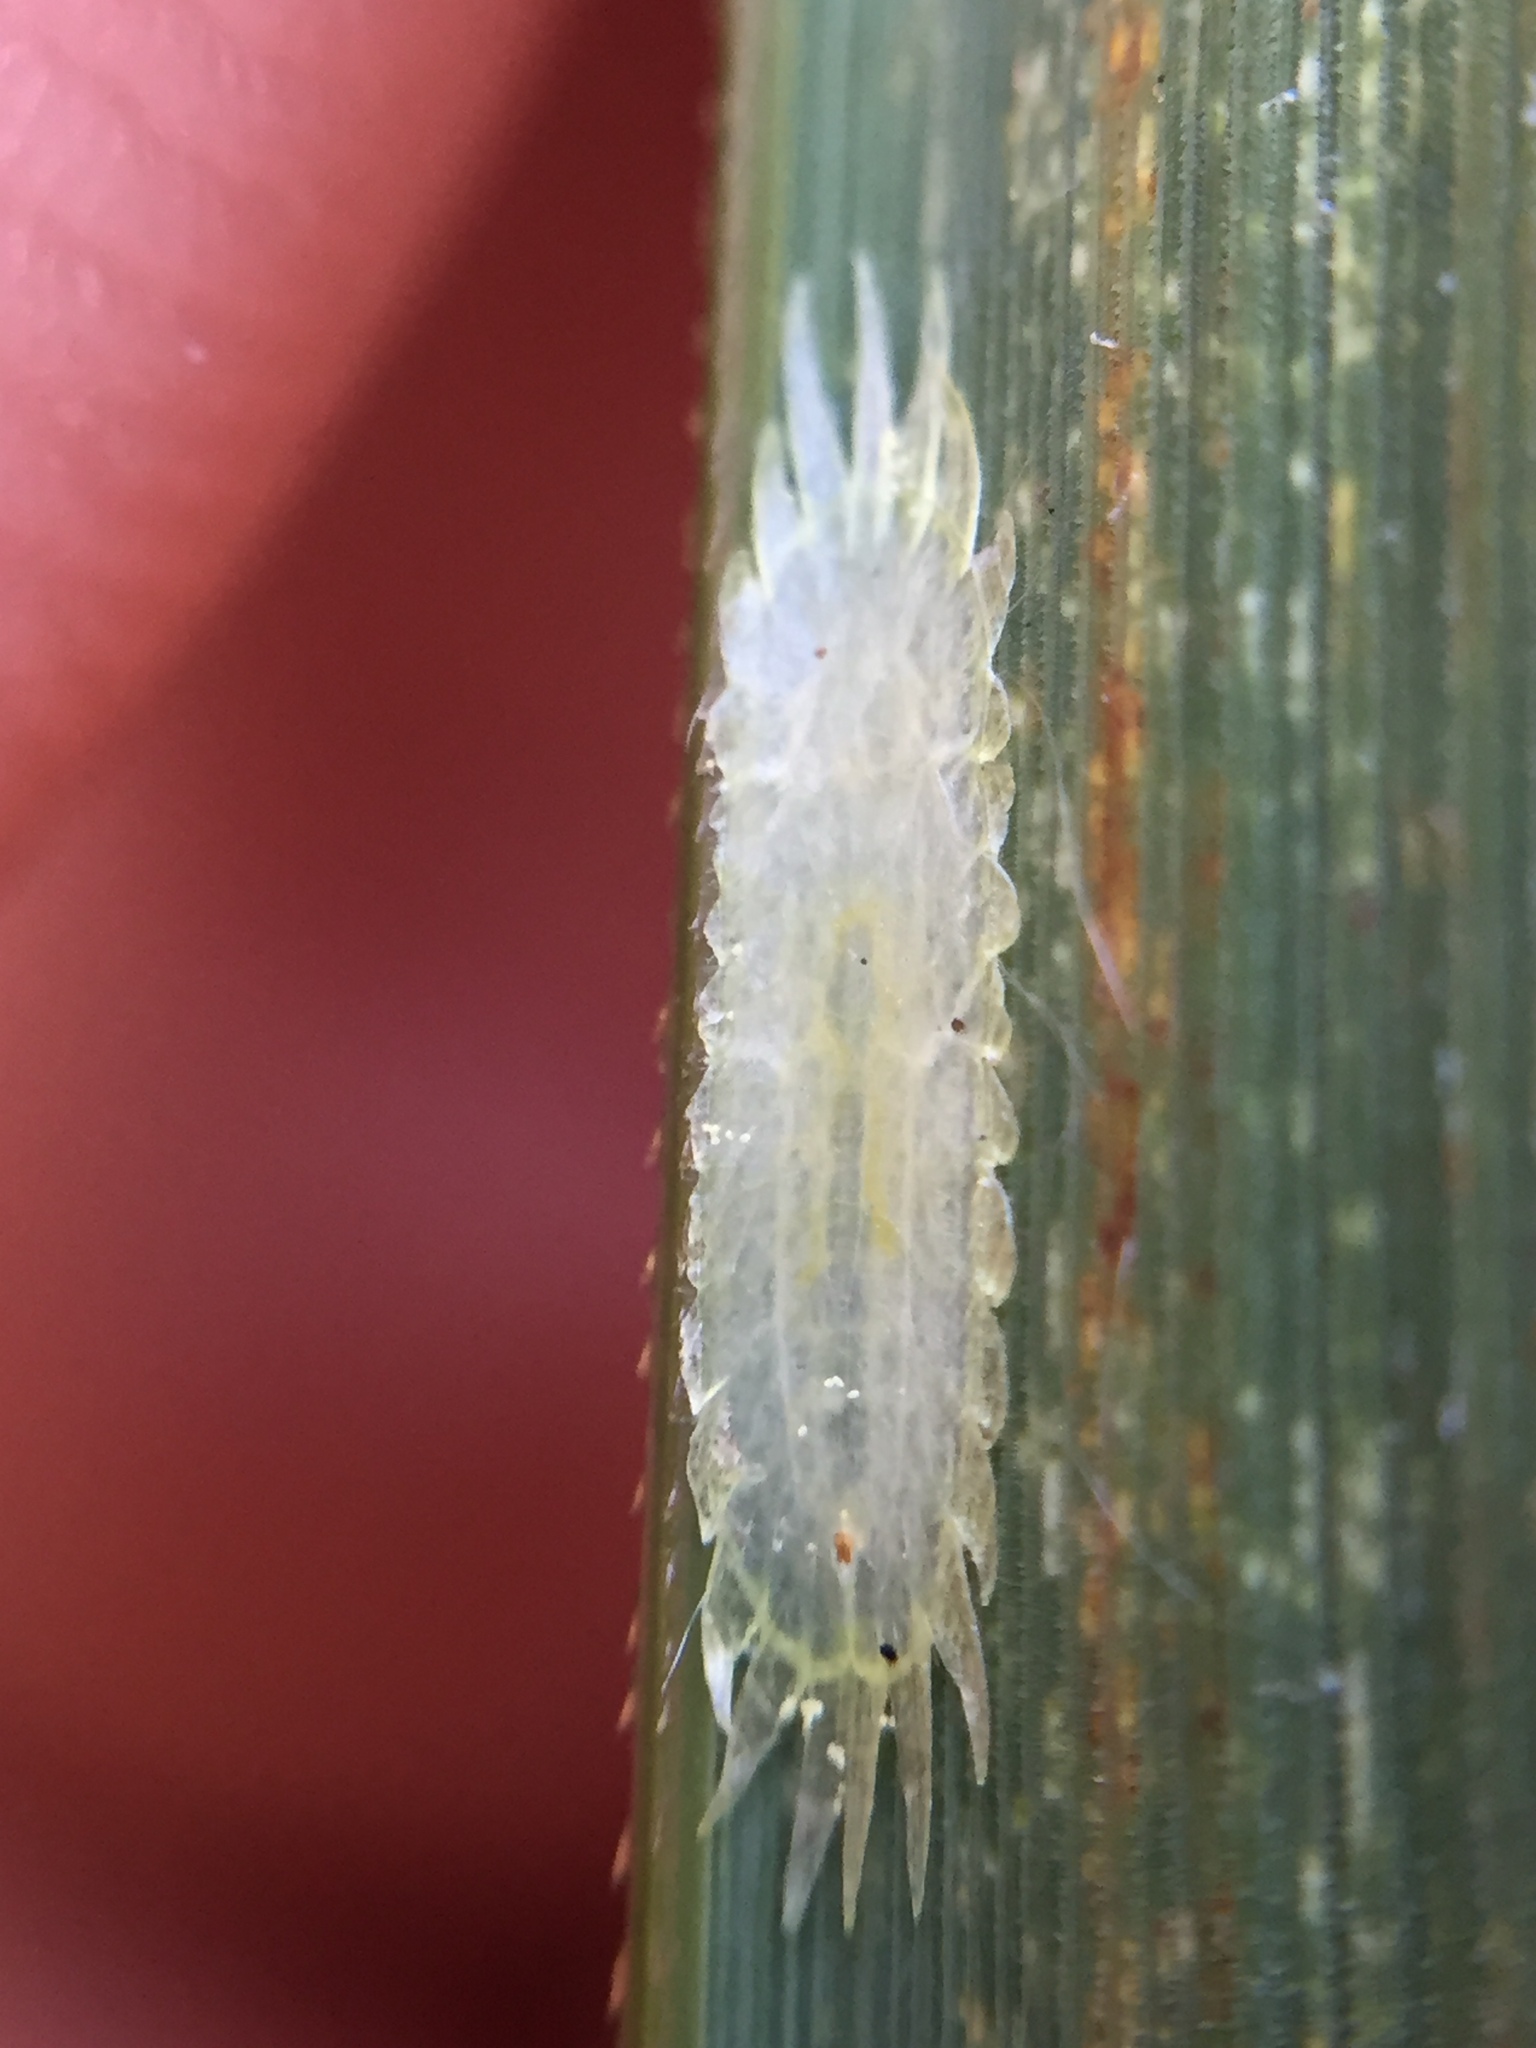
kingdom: Animalia
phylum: Arthropoda
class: Insecta
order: Hemiptera
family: Coccidae
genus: Kalasiris
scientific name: Kalasiris martini
